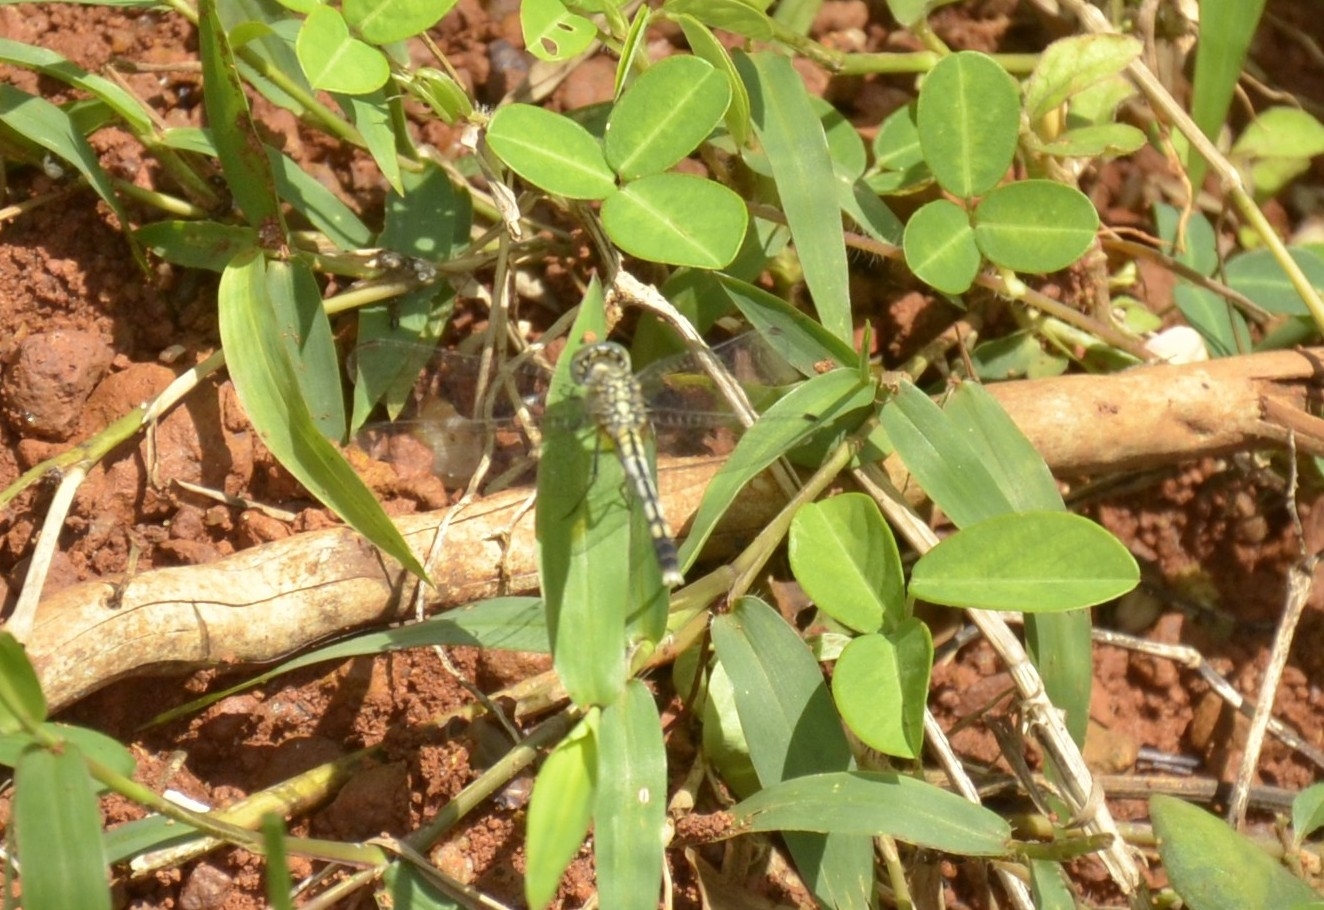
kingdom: Animalia
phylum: Arthropoda
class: Insecta
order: Odonata
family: Libellulidae
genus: Diplacodes
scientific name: Diplacodes trivialis
